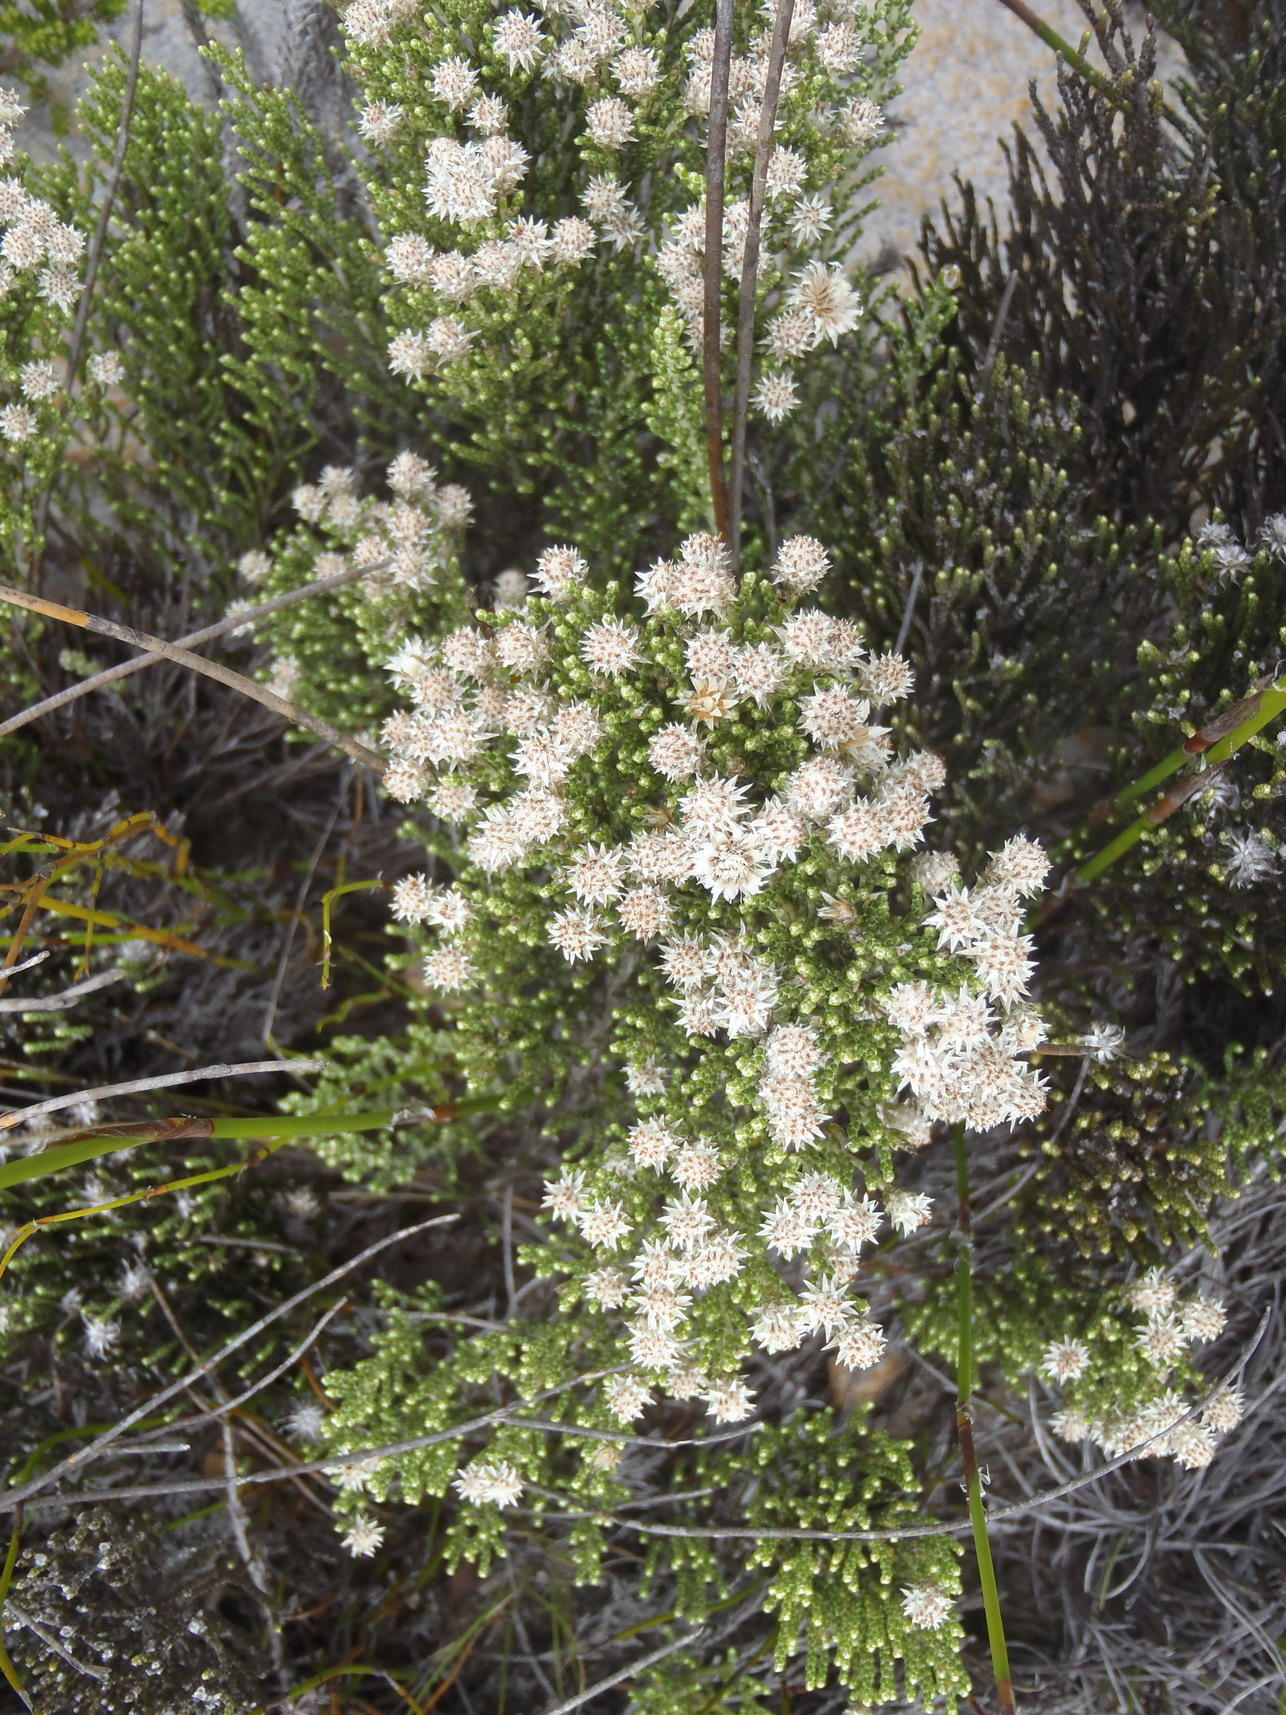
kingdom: Plantae
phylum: Tracheophyta
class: Magnoliopsida
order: Asterales
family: Asteraceae
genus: Dolichothrix
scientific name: Dolichothrix ericoides
